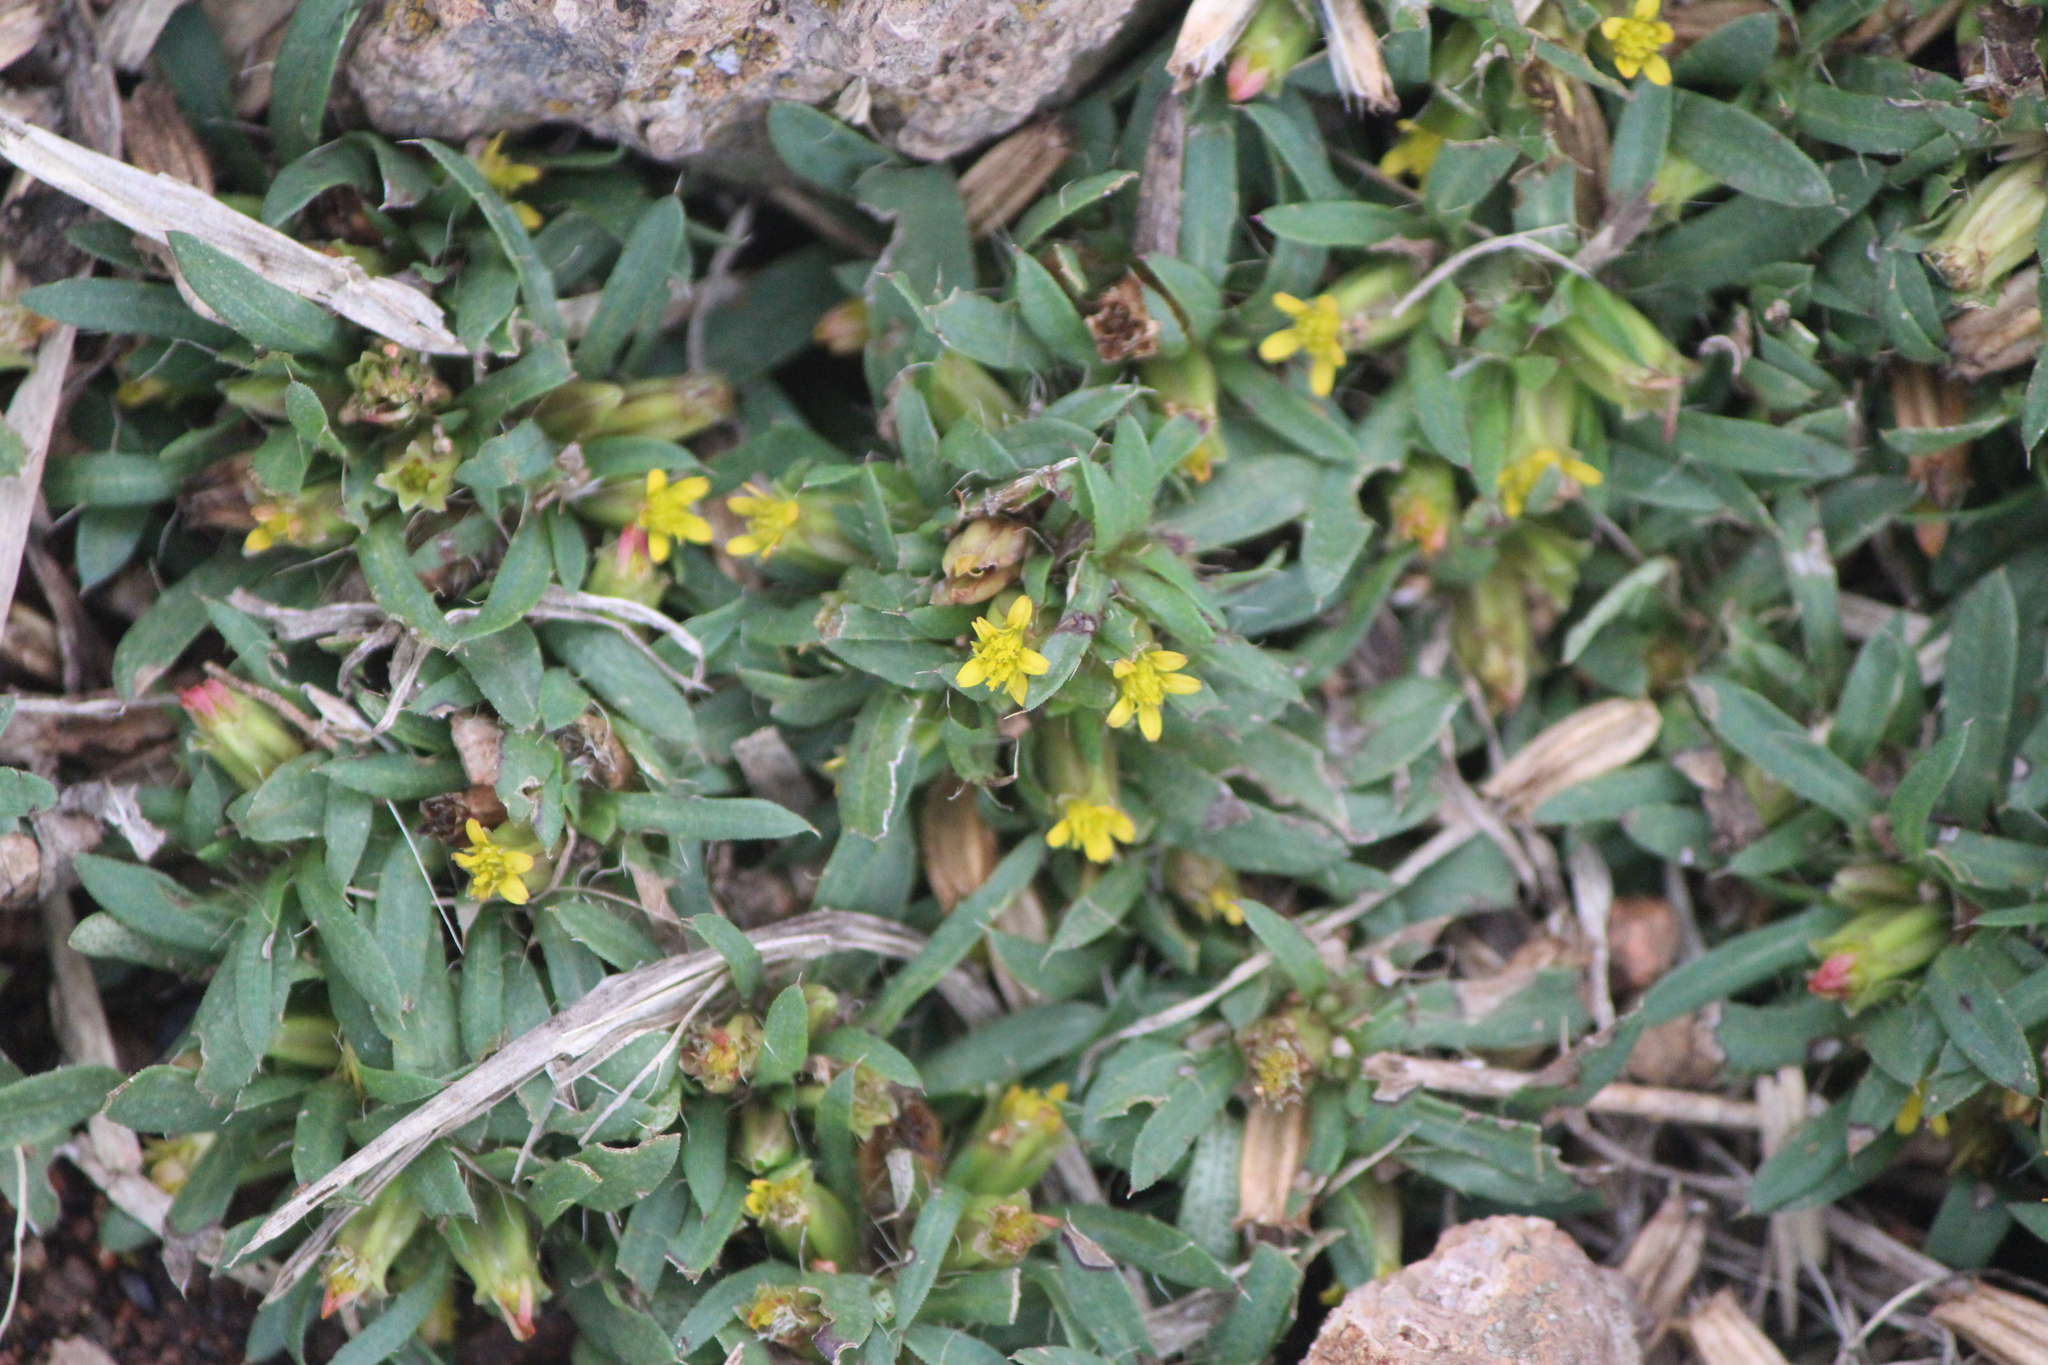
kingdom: Plantae
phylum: Tracheophyta
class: Magnoliopsida
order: Asterales
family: Asteraceae
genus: Pectis
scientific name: Pectis prostrata
